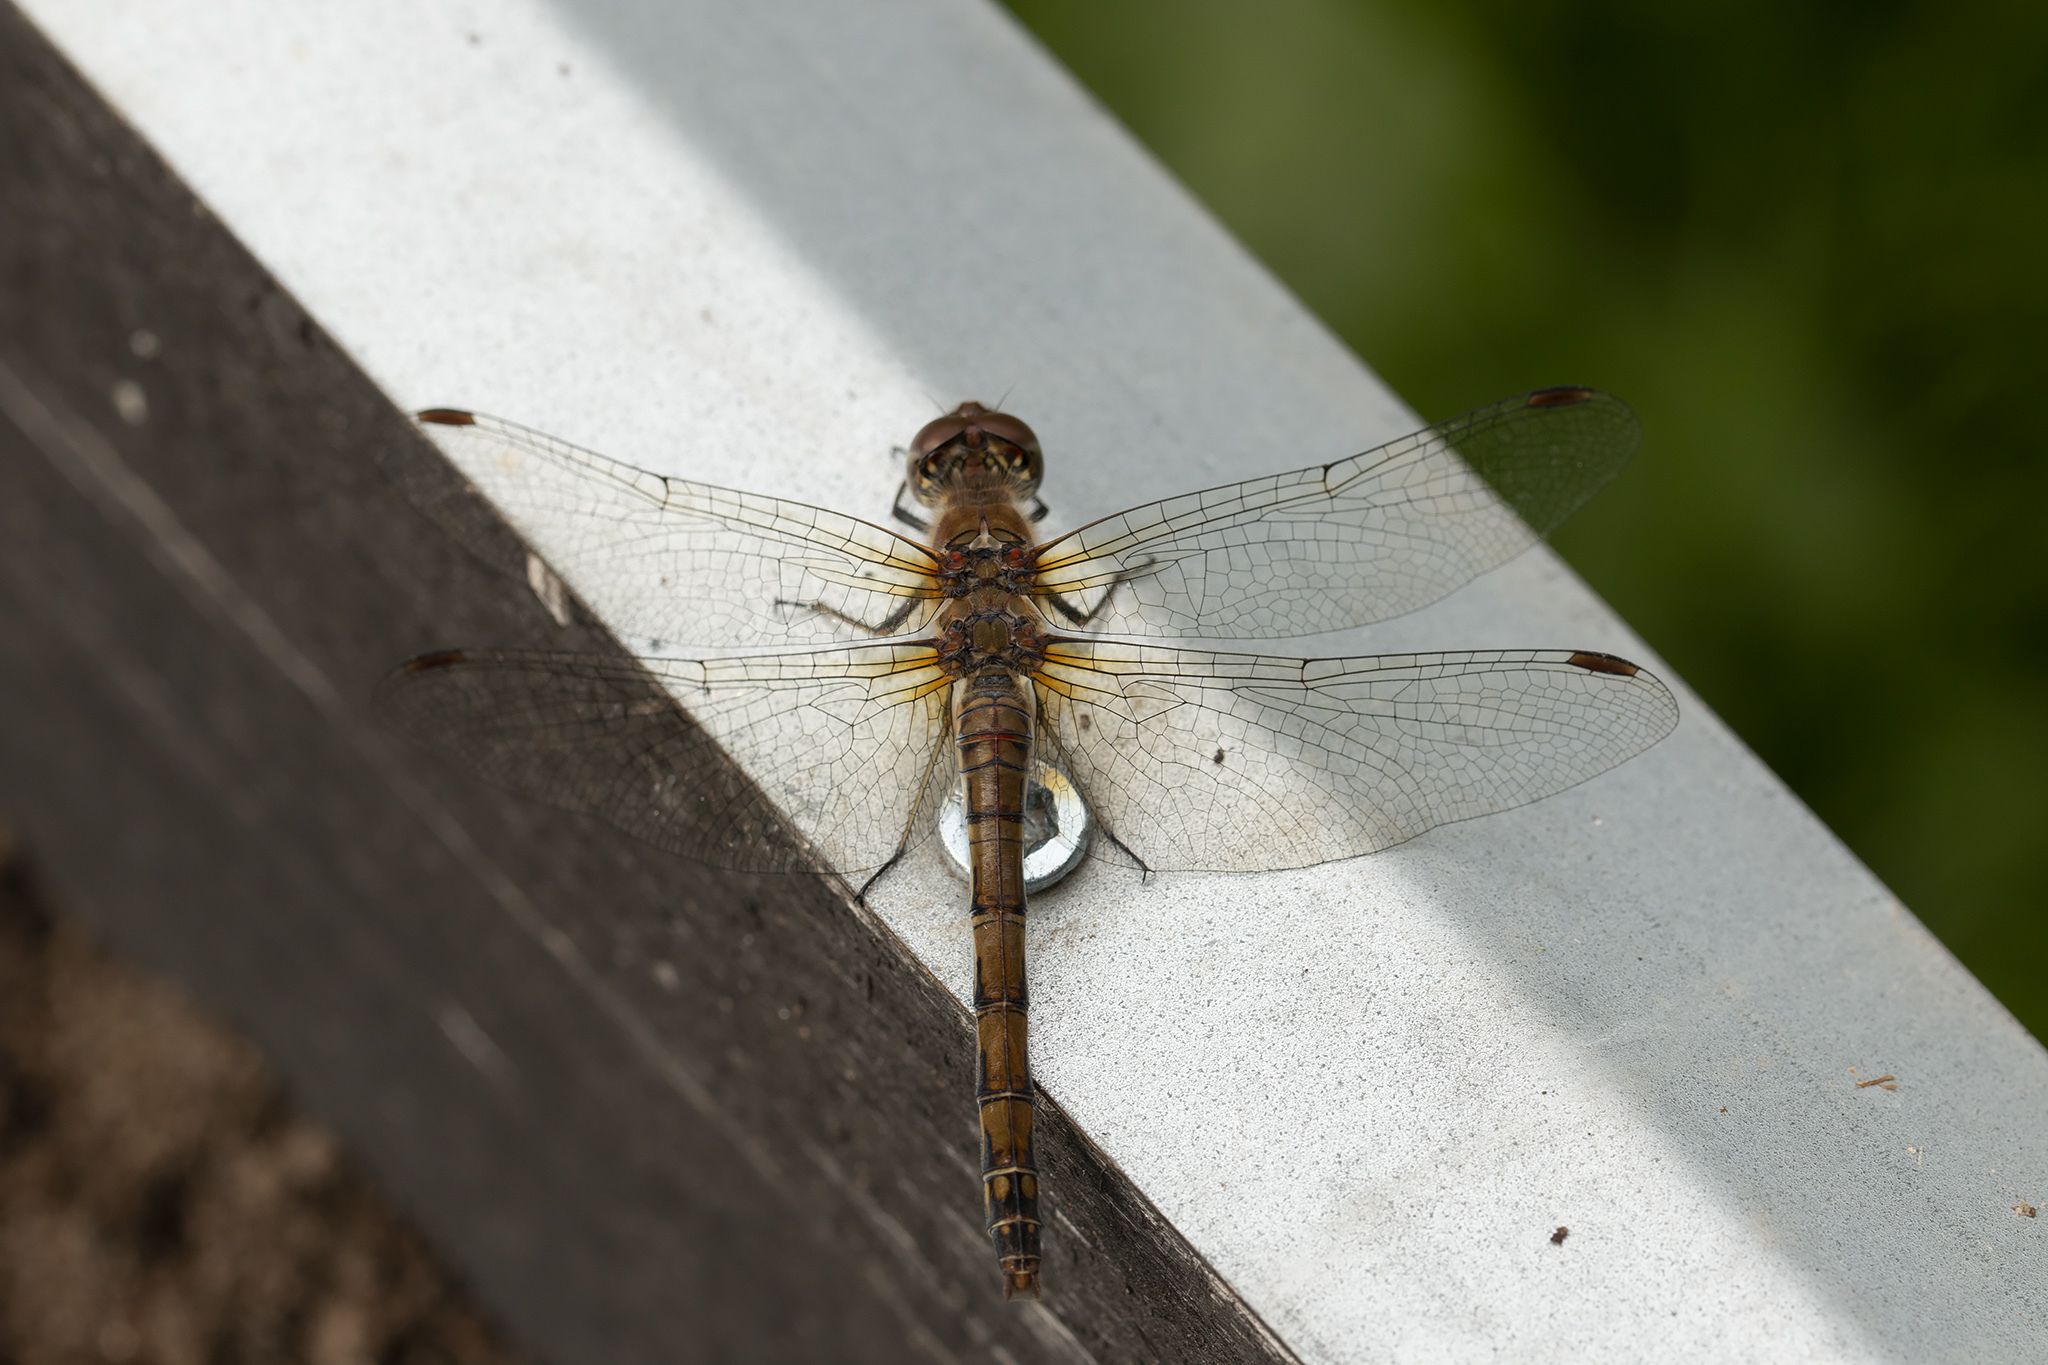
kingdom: Animalia
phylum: Arthropoda
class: Insecta
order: Odonata
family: Libellulidae
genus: Sympetrum
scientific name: Sympetrum striolatum
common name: Common darter
